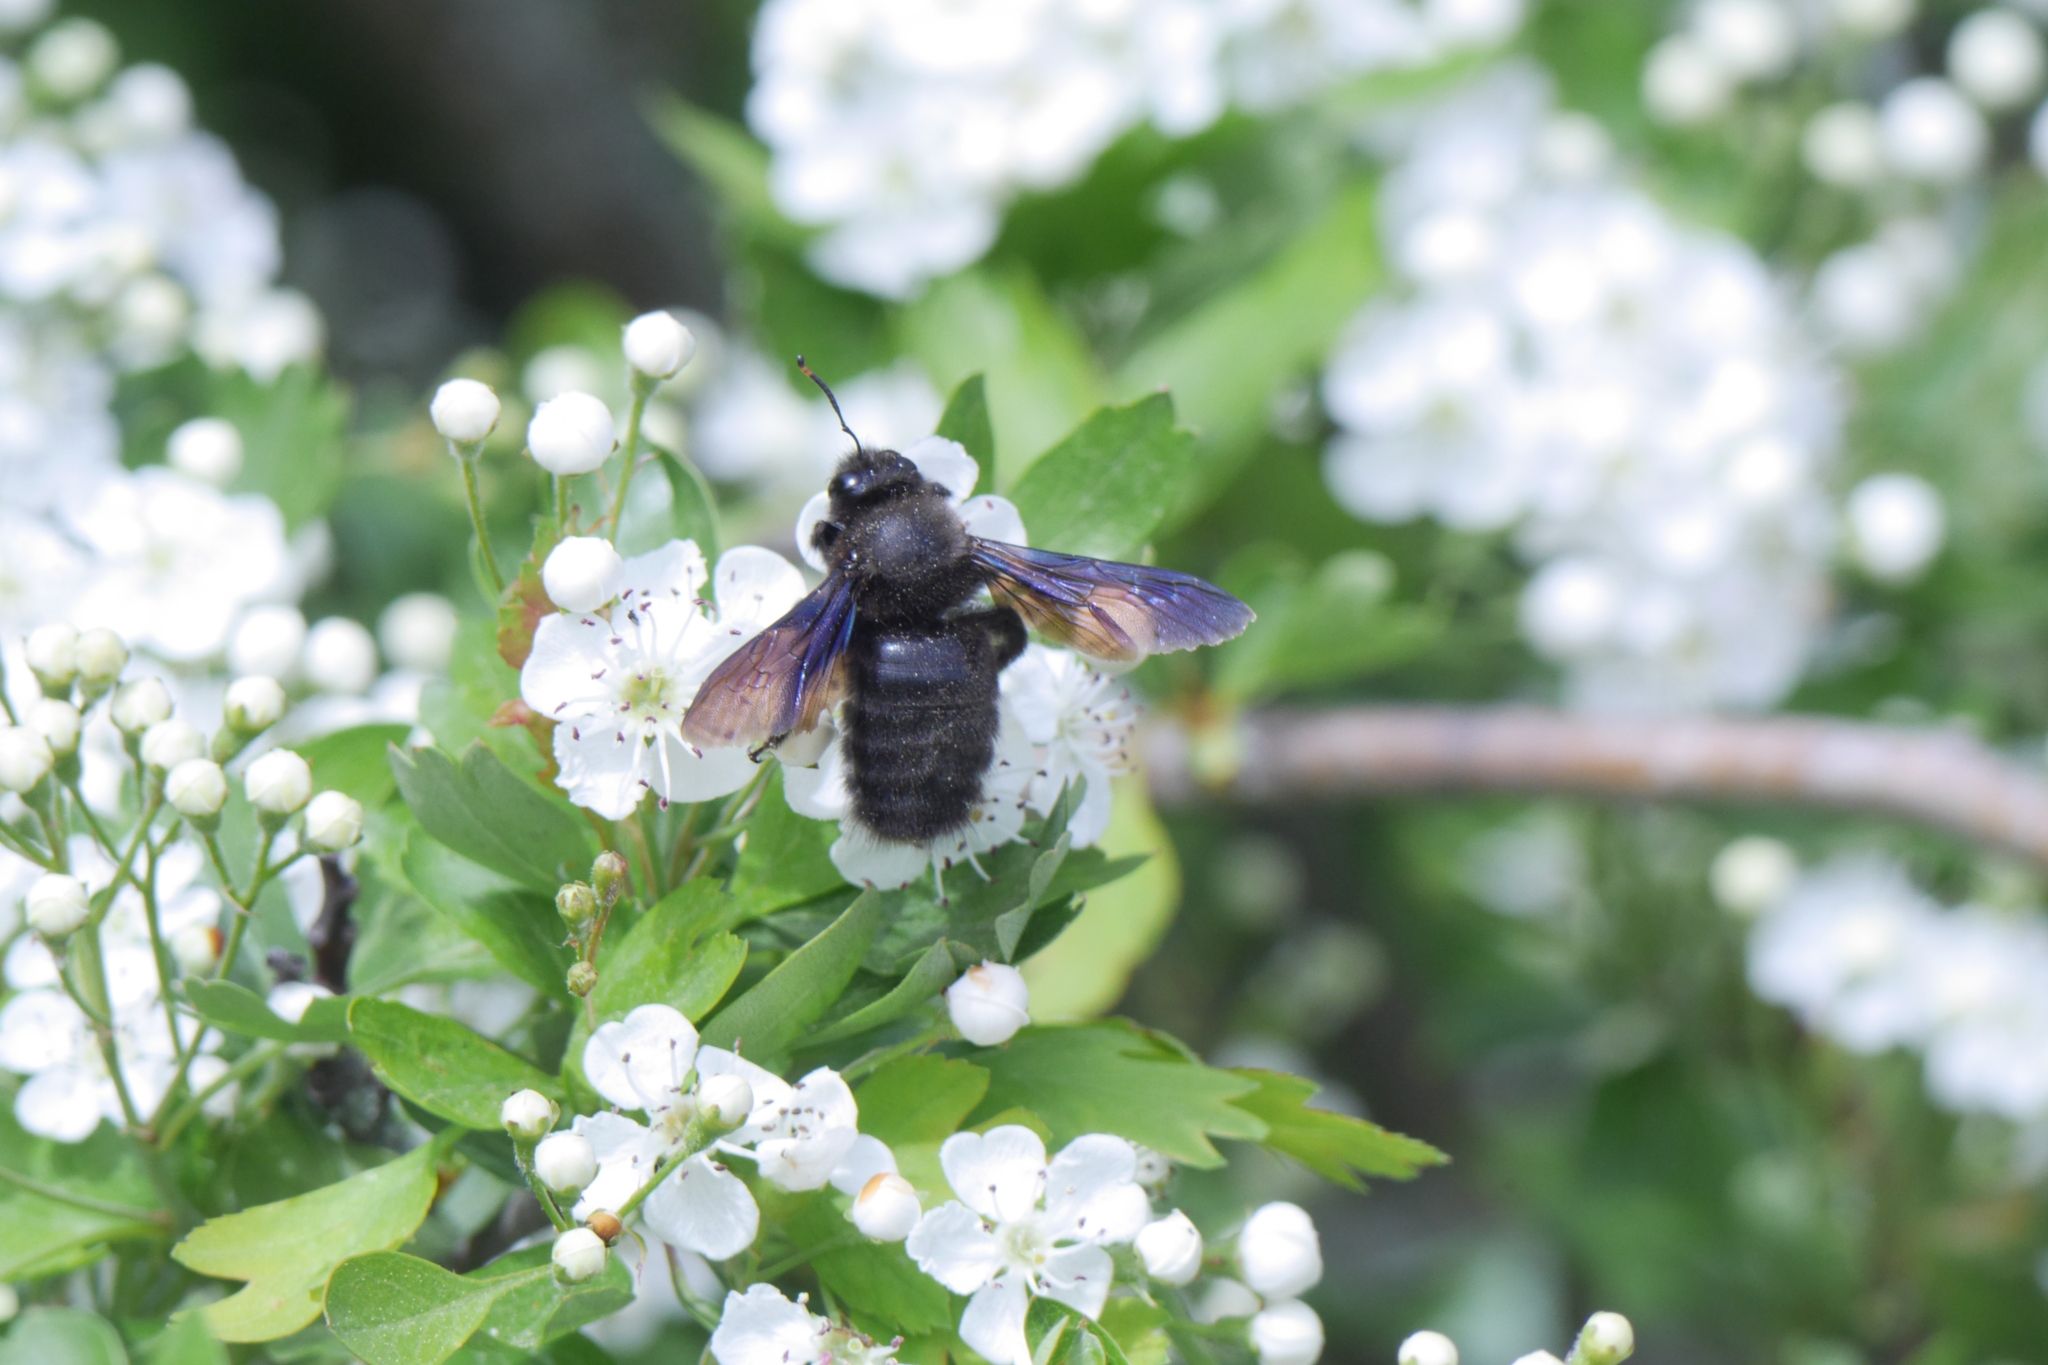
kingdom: Animalia
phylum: Arthropoda
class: Insecta
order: Hymenoptera
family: Apidae
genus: Xylocopa
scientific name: Xylocopa violacea
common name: Violet carpenter bee
